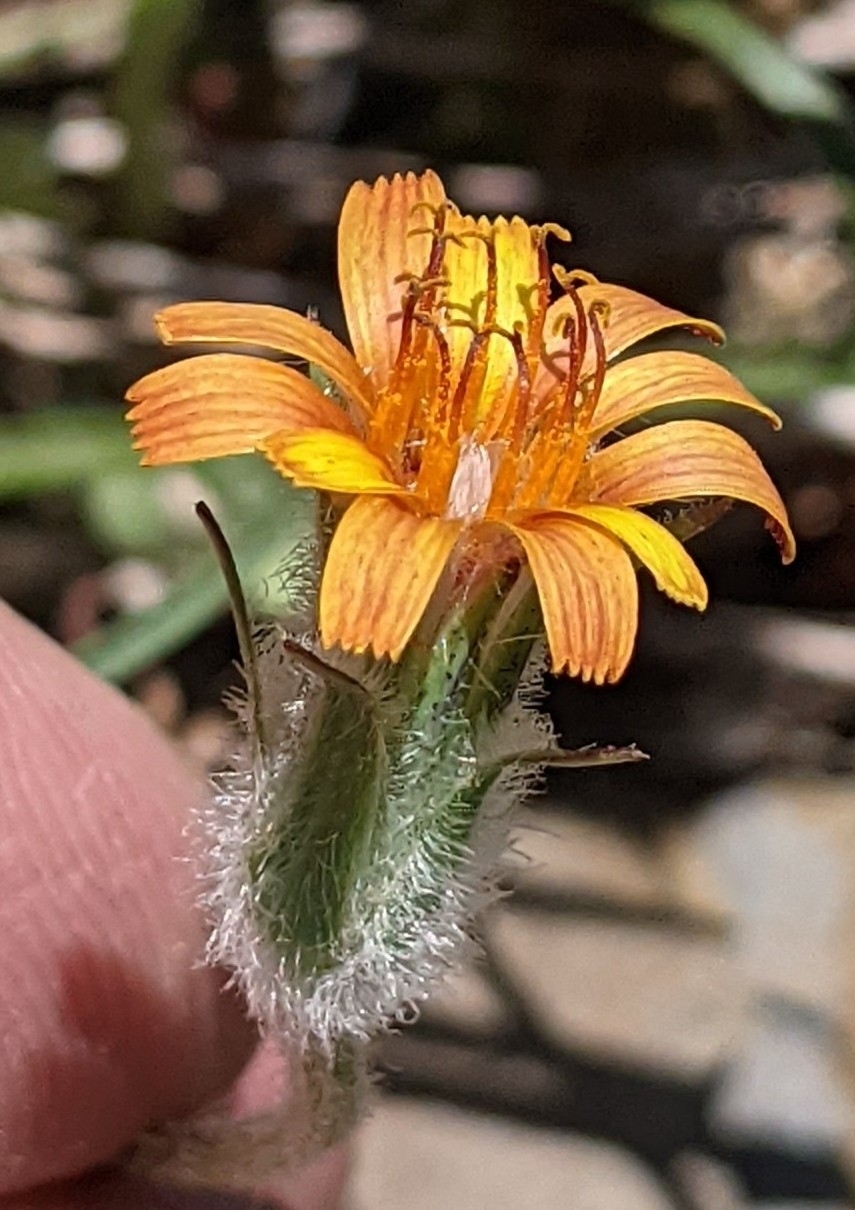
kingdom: Plantae
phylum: Tracheophyta
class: Magnoliopsida
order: Asterales
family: Asteraceae
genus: Agoseris
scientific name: Agoseris aurantiaca
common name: Mountain agoseris
